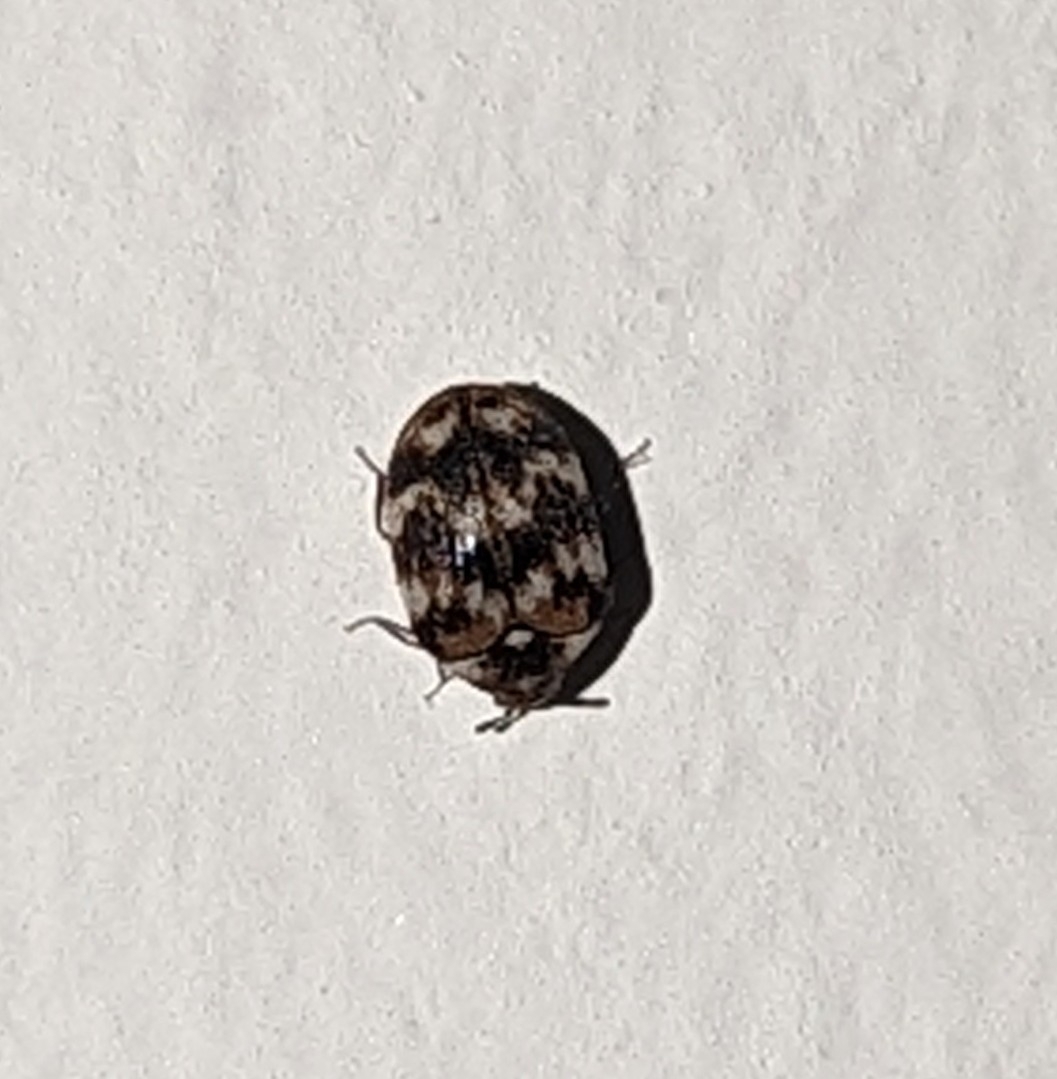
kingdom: Animalia
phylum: Arthropoda
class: Insecta
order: Coleoptera
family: Dermestidae
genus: Anthrenus
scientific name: Anthrenus verbasci
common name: Varied carpet beetle
